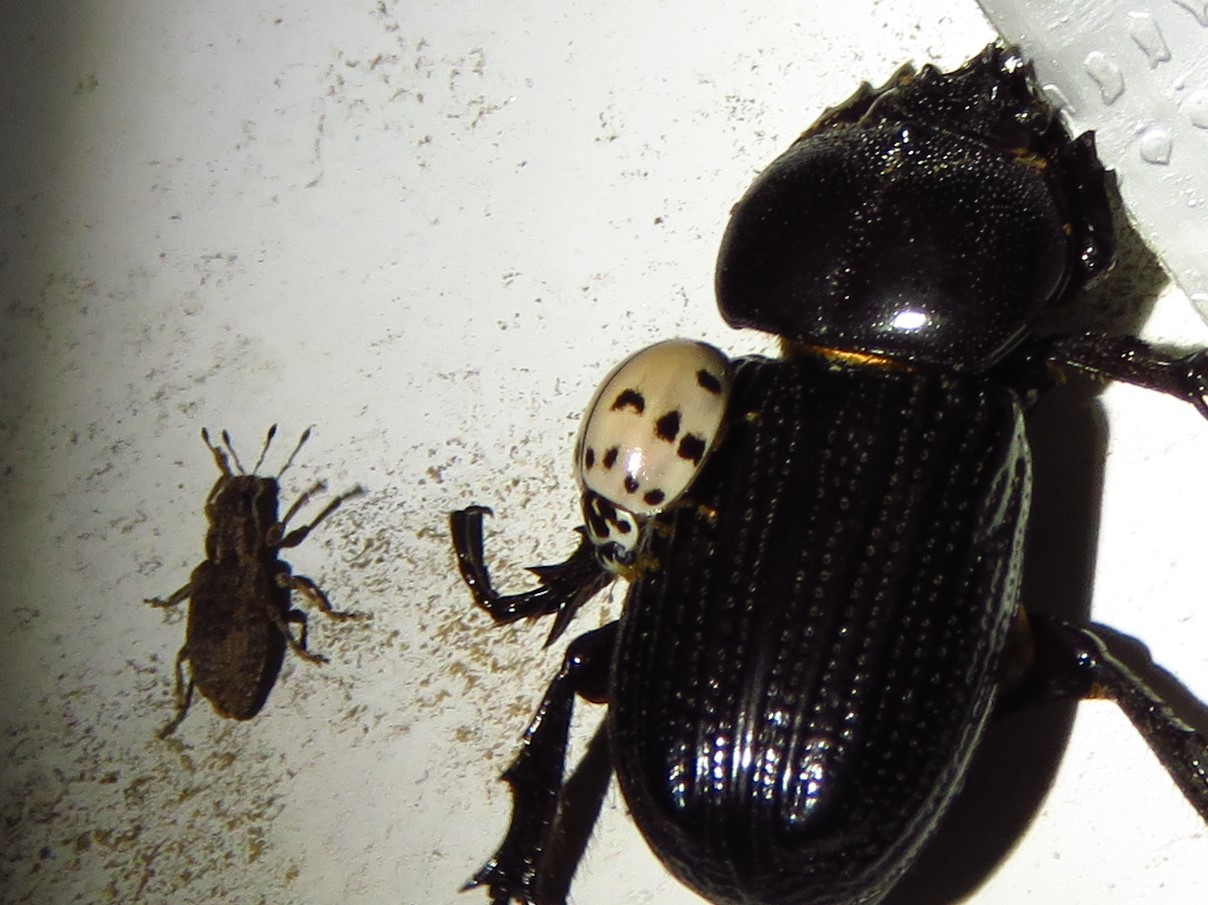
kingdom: Animalia
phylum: Arthropoda
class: Insecta
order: Coleoptera
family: Coccinellidae
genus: Olla
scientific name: Olla v-nigrum
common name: Ashy gray lady beetle
